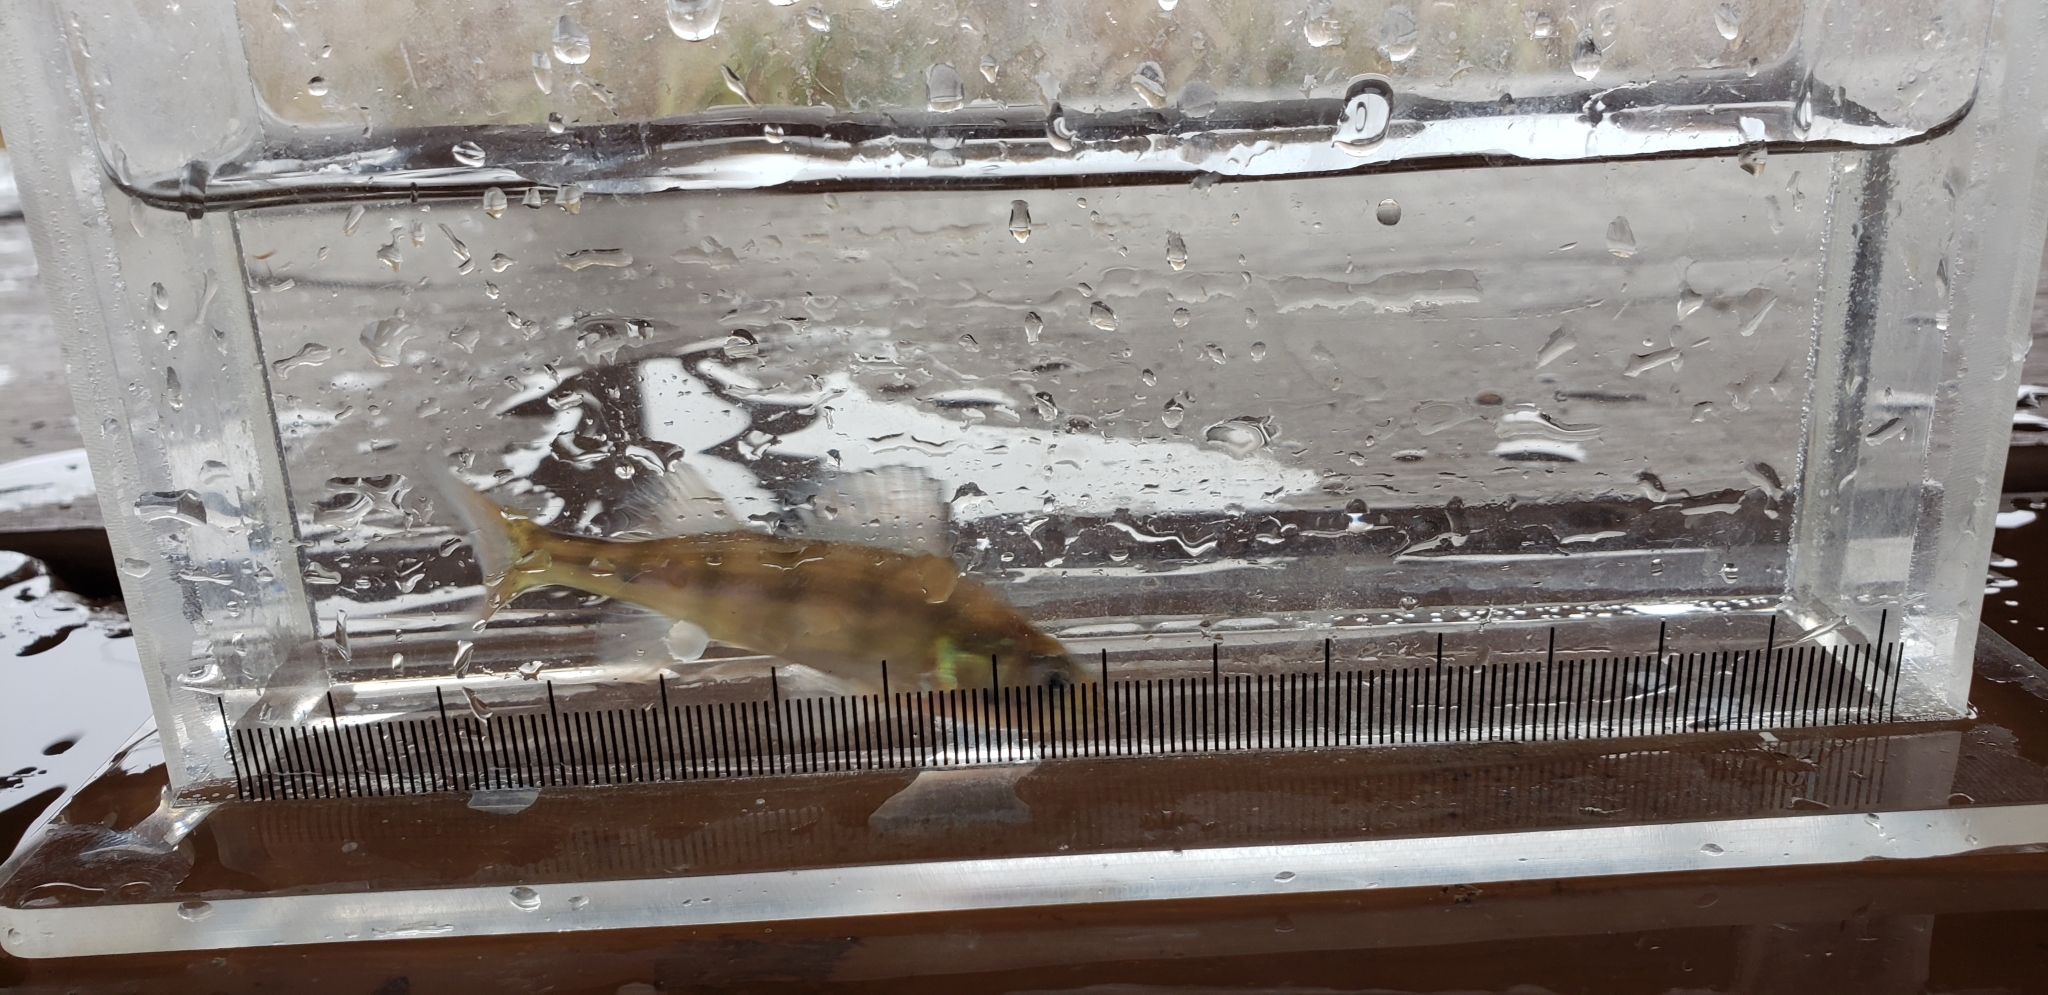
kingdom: Animalia
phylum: Chordata
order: Perciformes
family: Percidae
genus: Perca
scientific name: Perca flavescens
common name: Yellow perch
